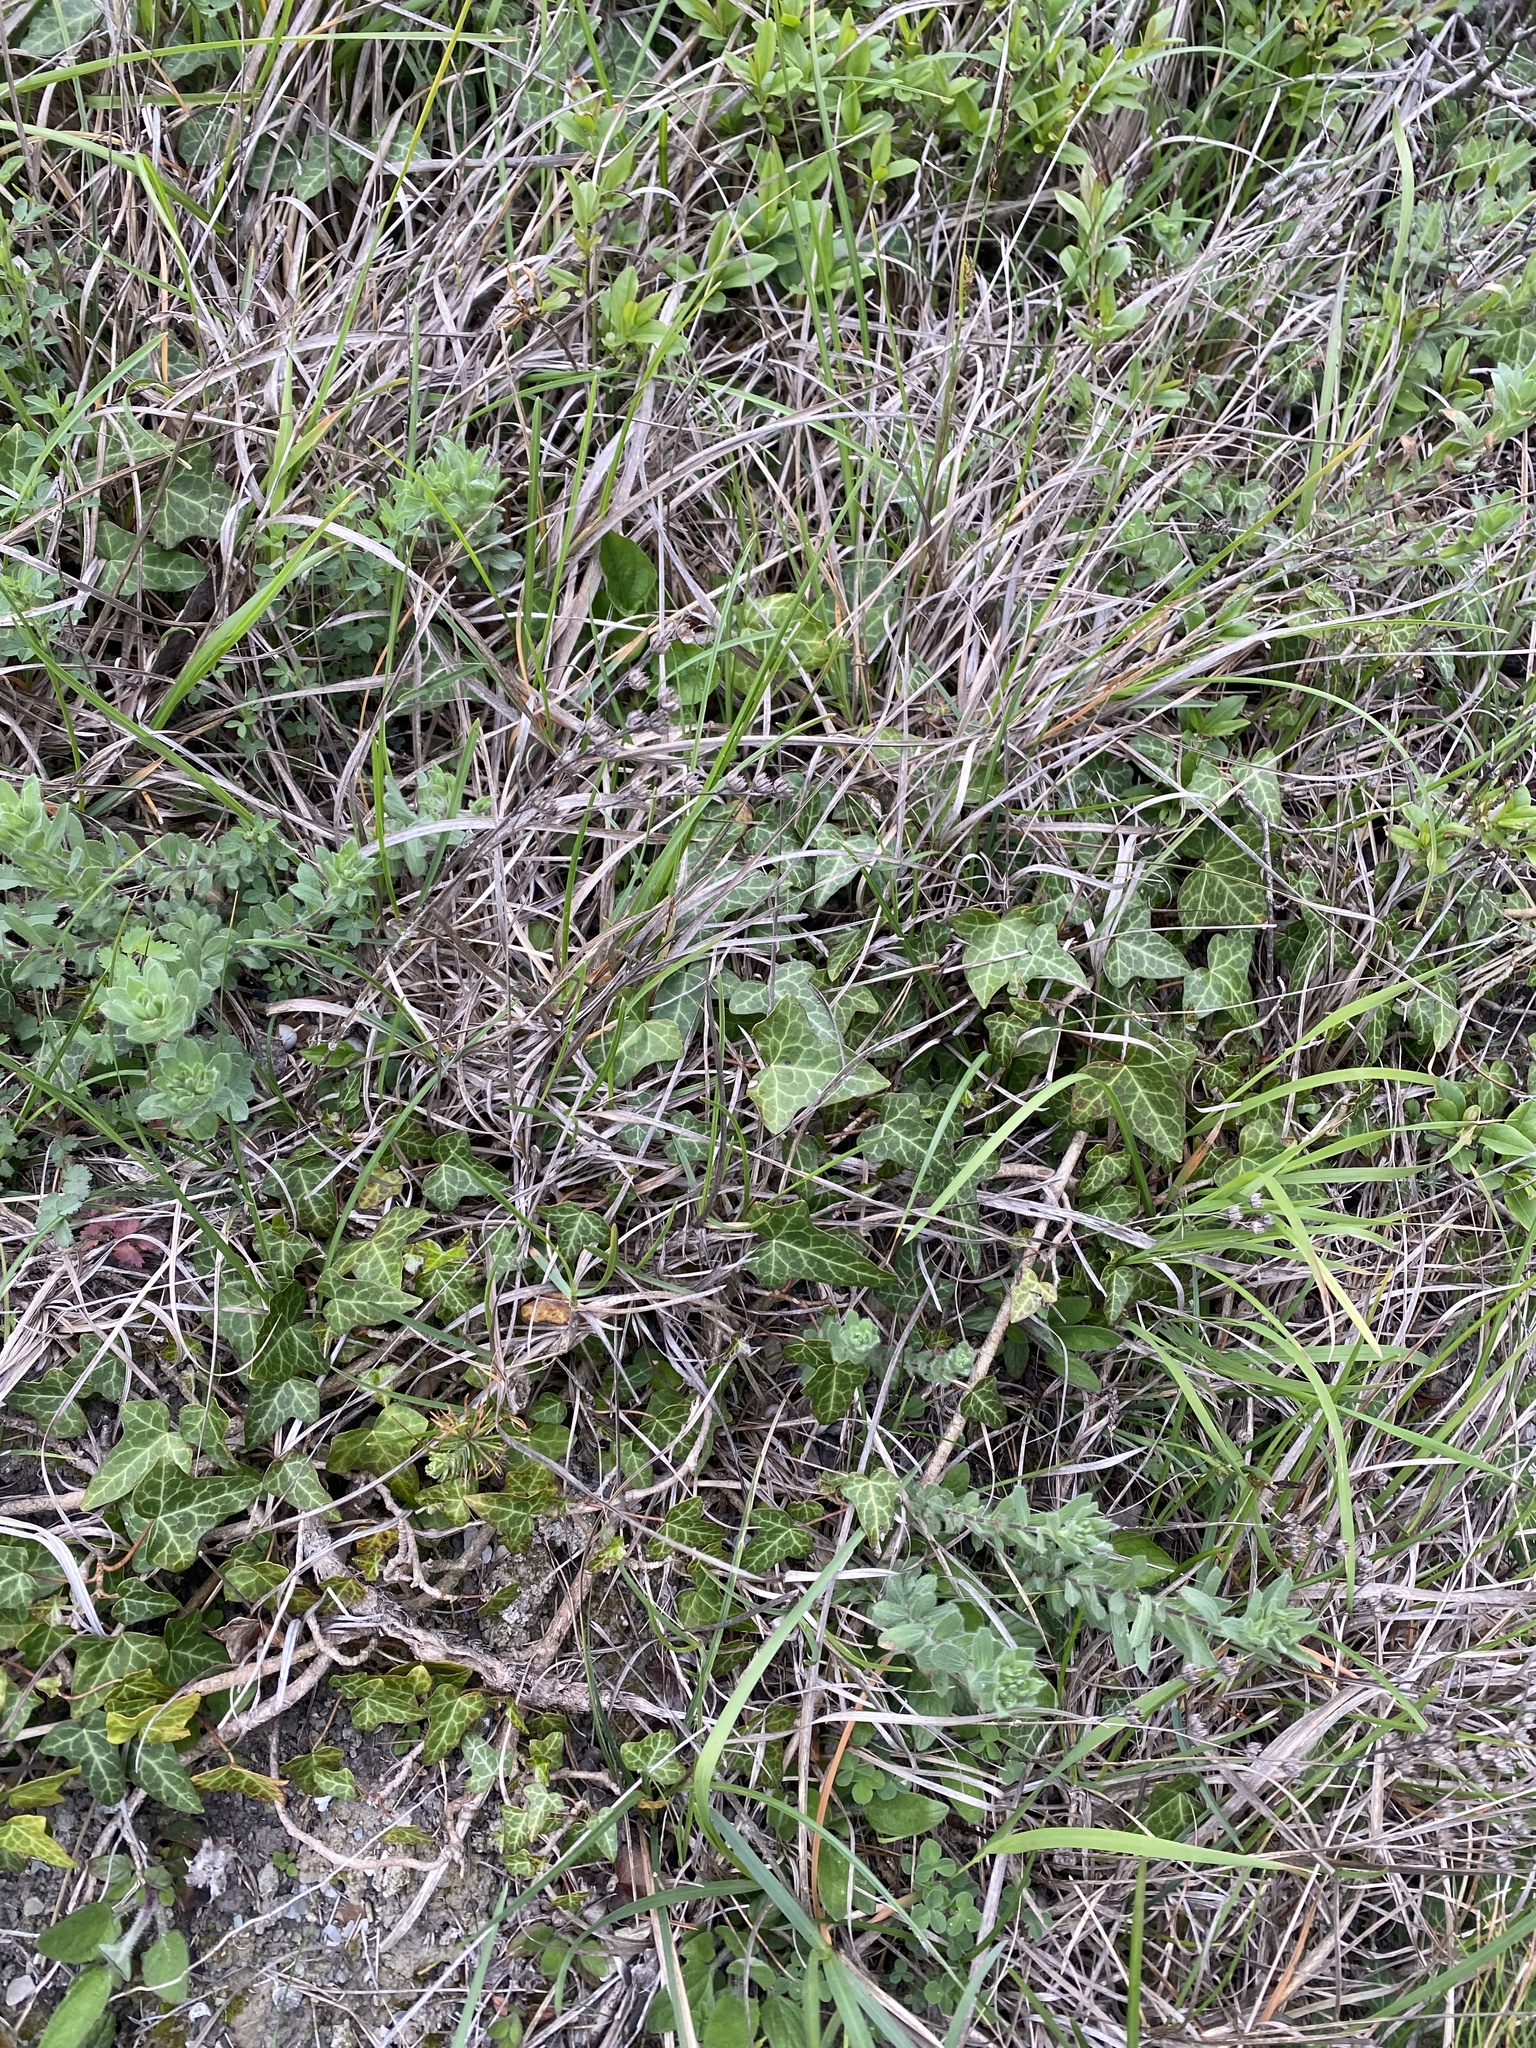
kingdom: Plantae
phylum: Tracheophyta
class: Magnoliopsida
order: Apiales
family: Araliaceae
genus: Hedera
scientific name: Hedera helix
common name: Ivy
